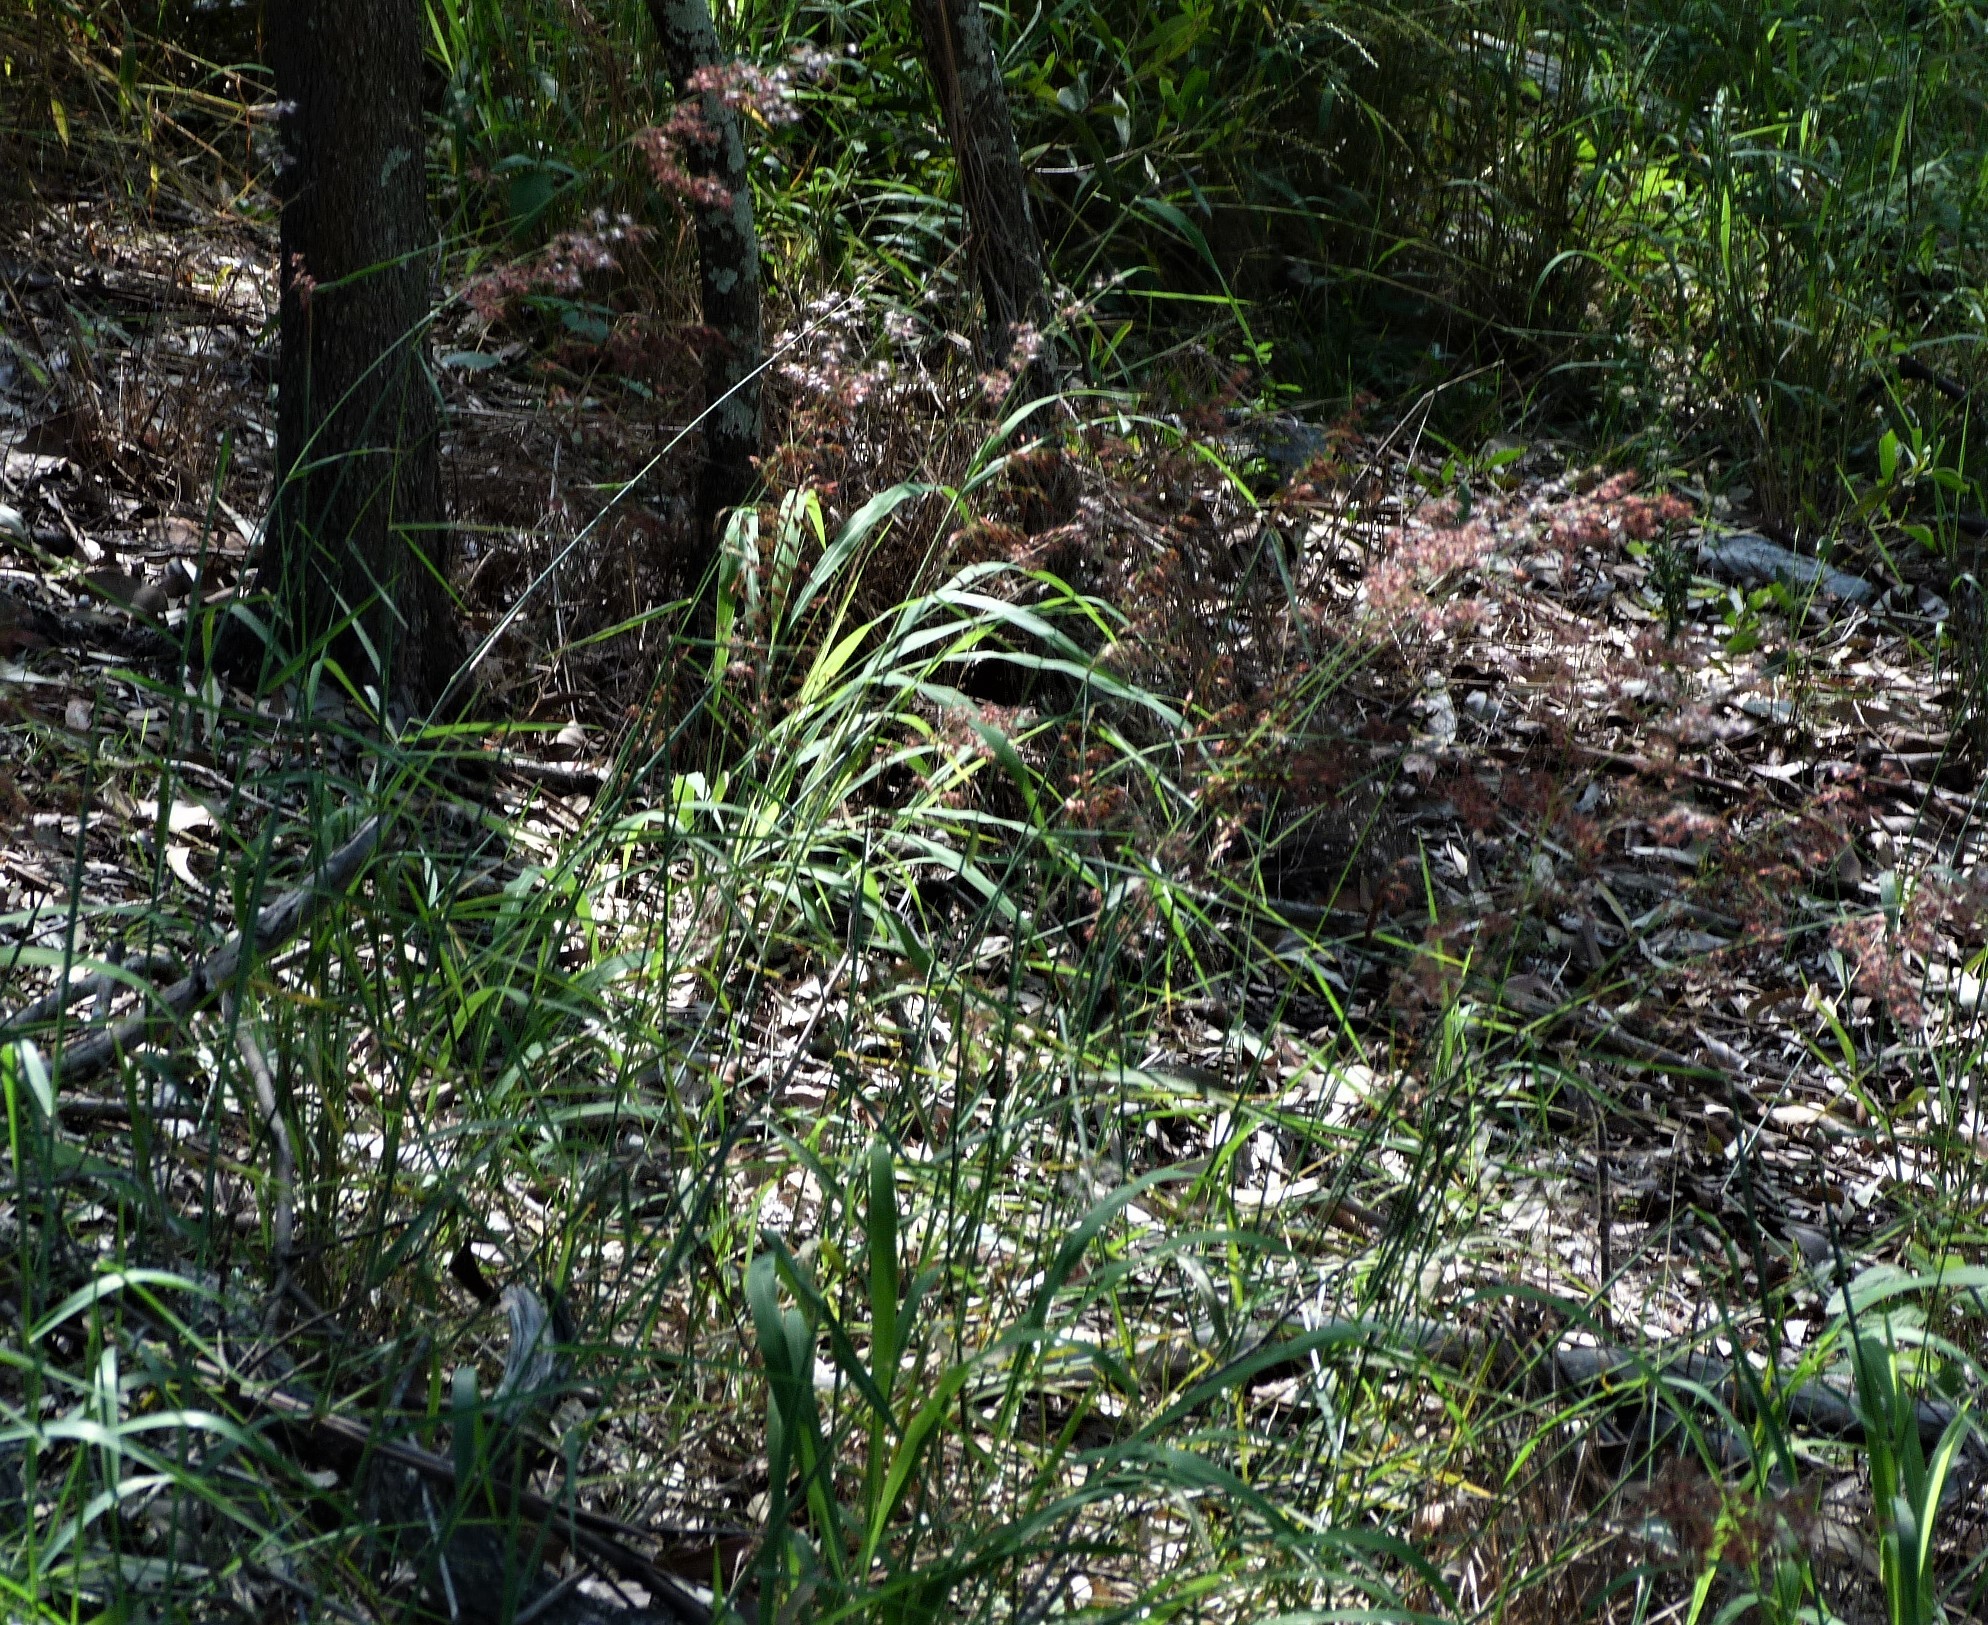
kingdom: Plantae
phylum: Tracheophyta
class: Liliopsida
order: Poales
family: Poaceae
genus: Melinis
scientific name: Melinis repens
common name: Rose natal grass
